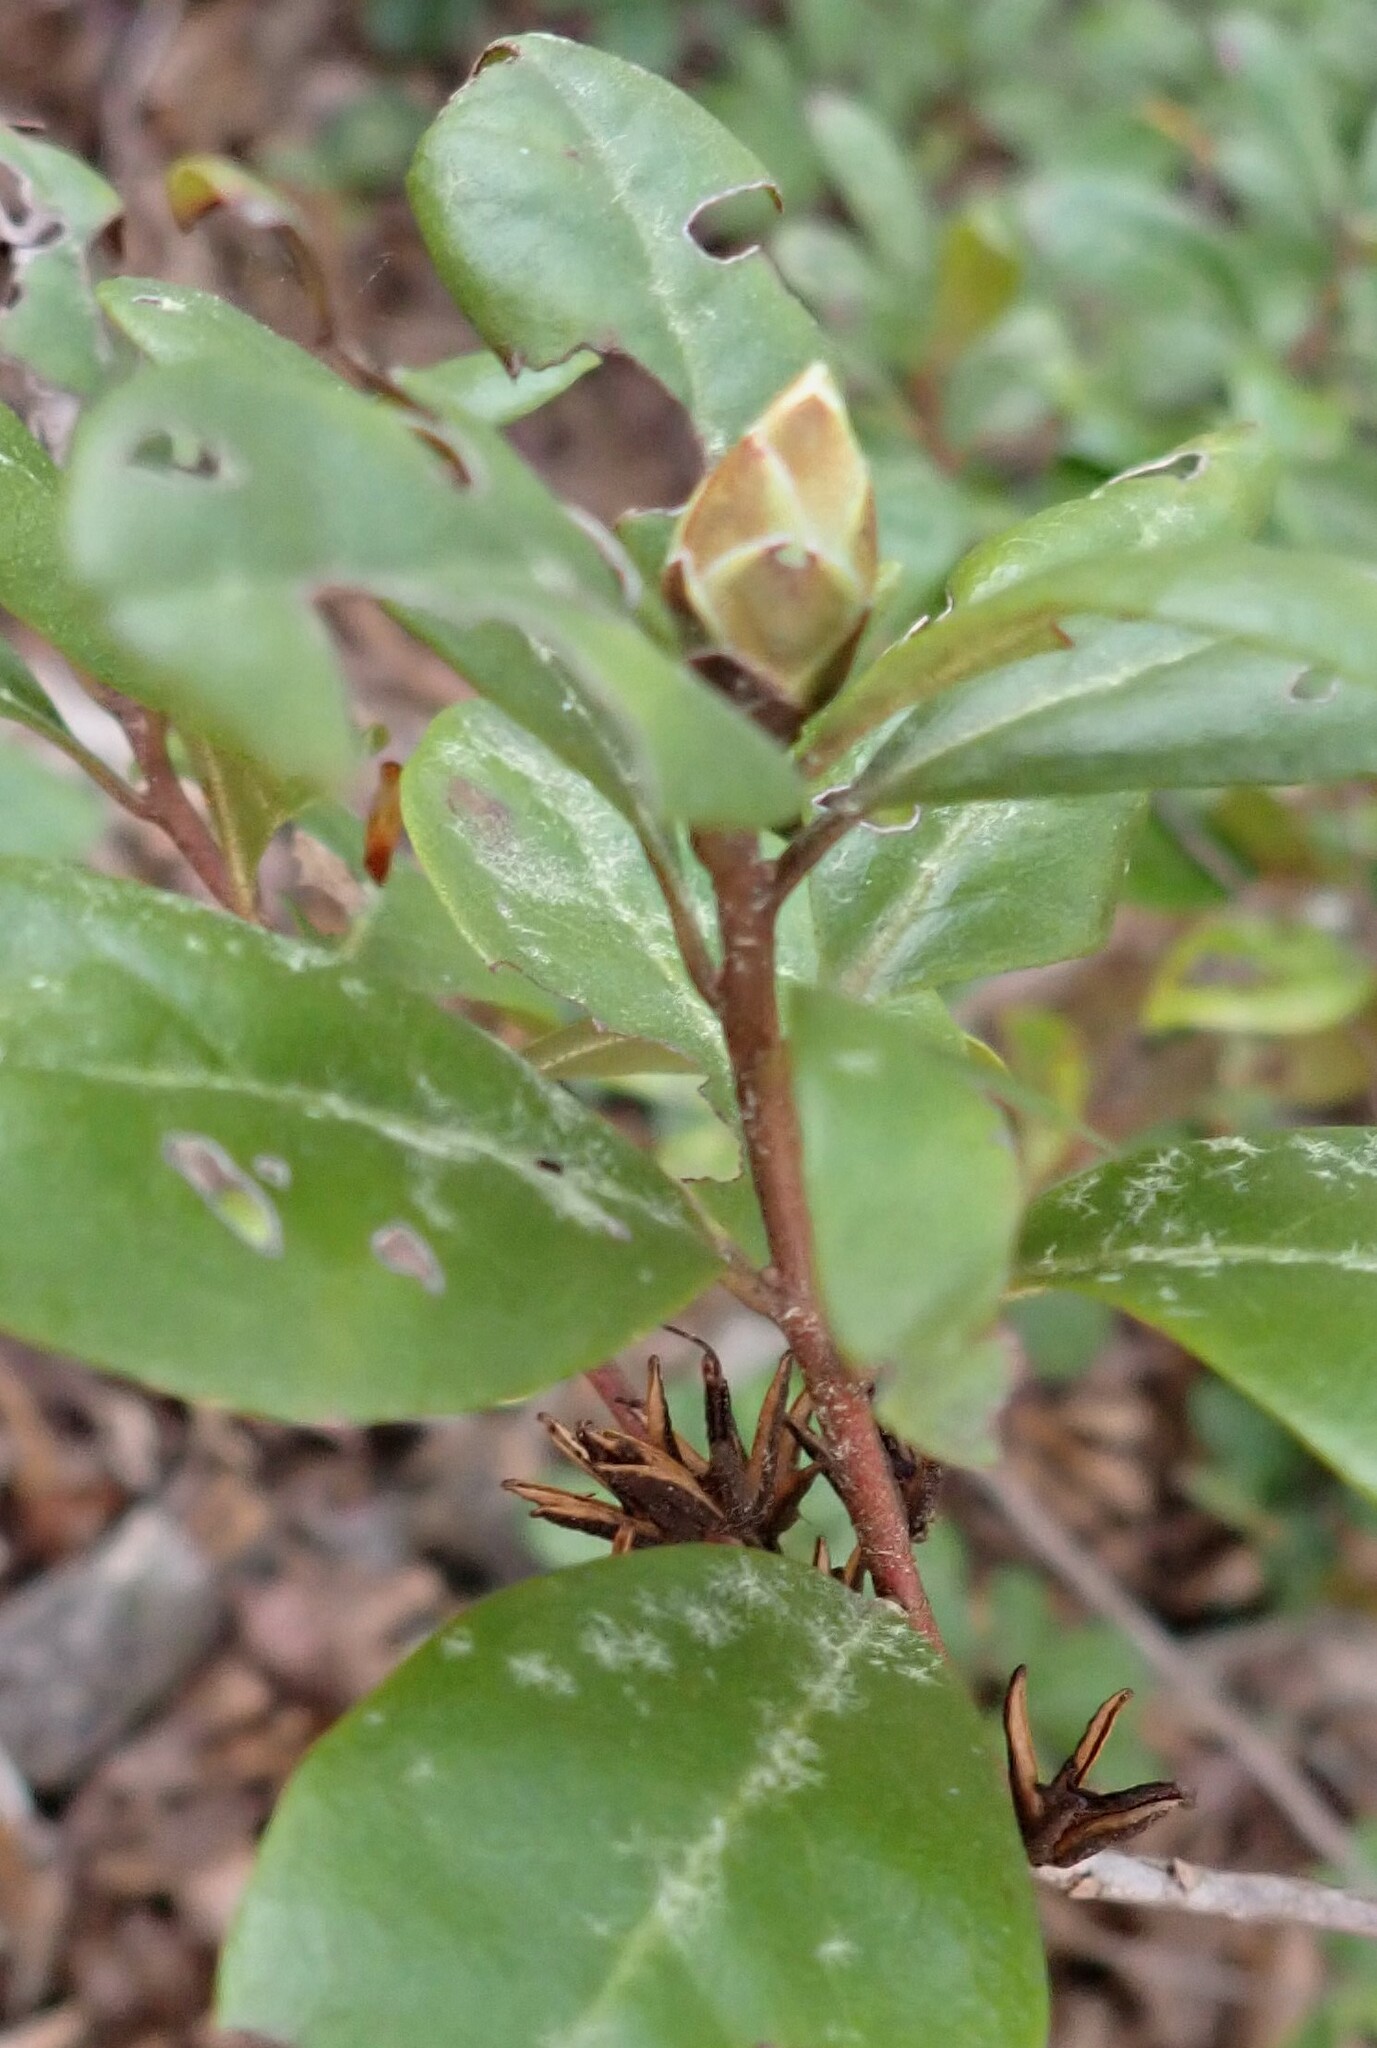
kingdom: Plantae
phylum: Tracheophyta
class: Magnoliopsida
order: Ericales
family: Ericaceae
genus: Rhododendron
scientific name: Rhododendron minus
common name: Piedmont rhododendron
